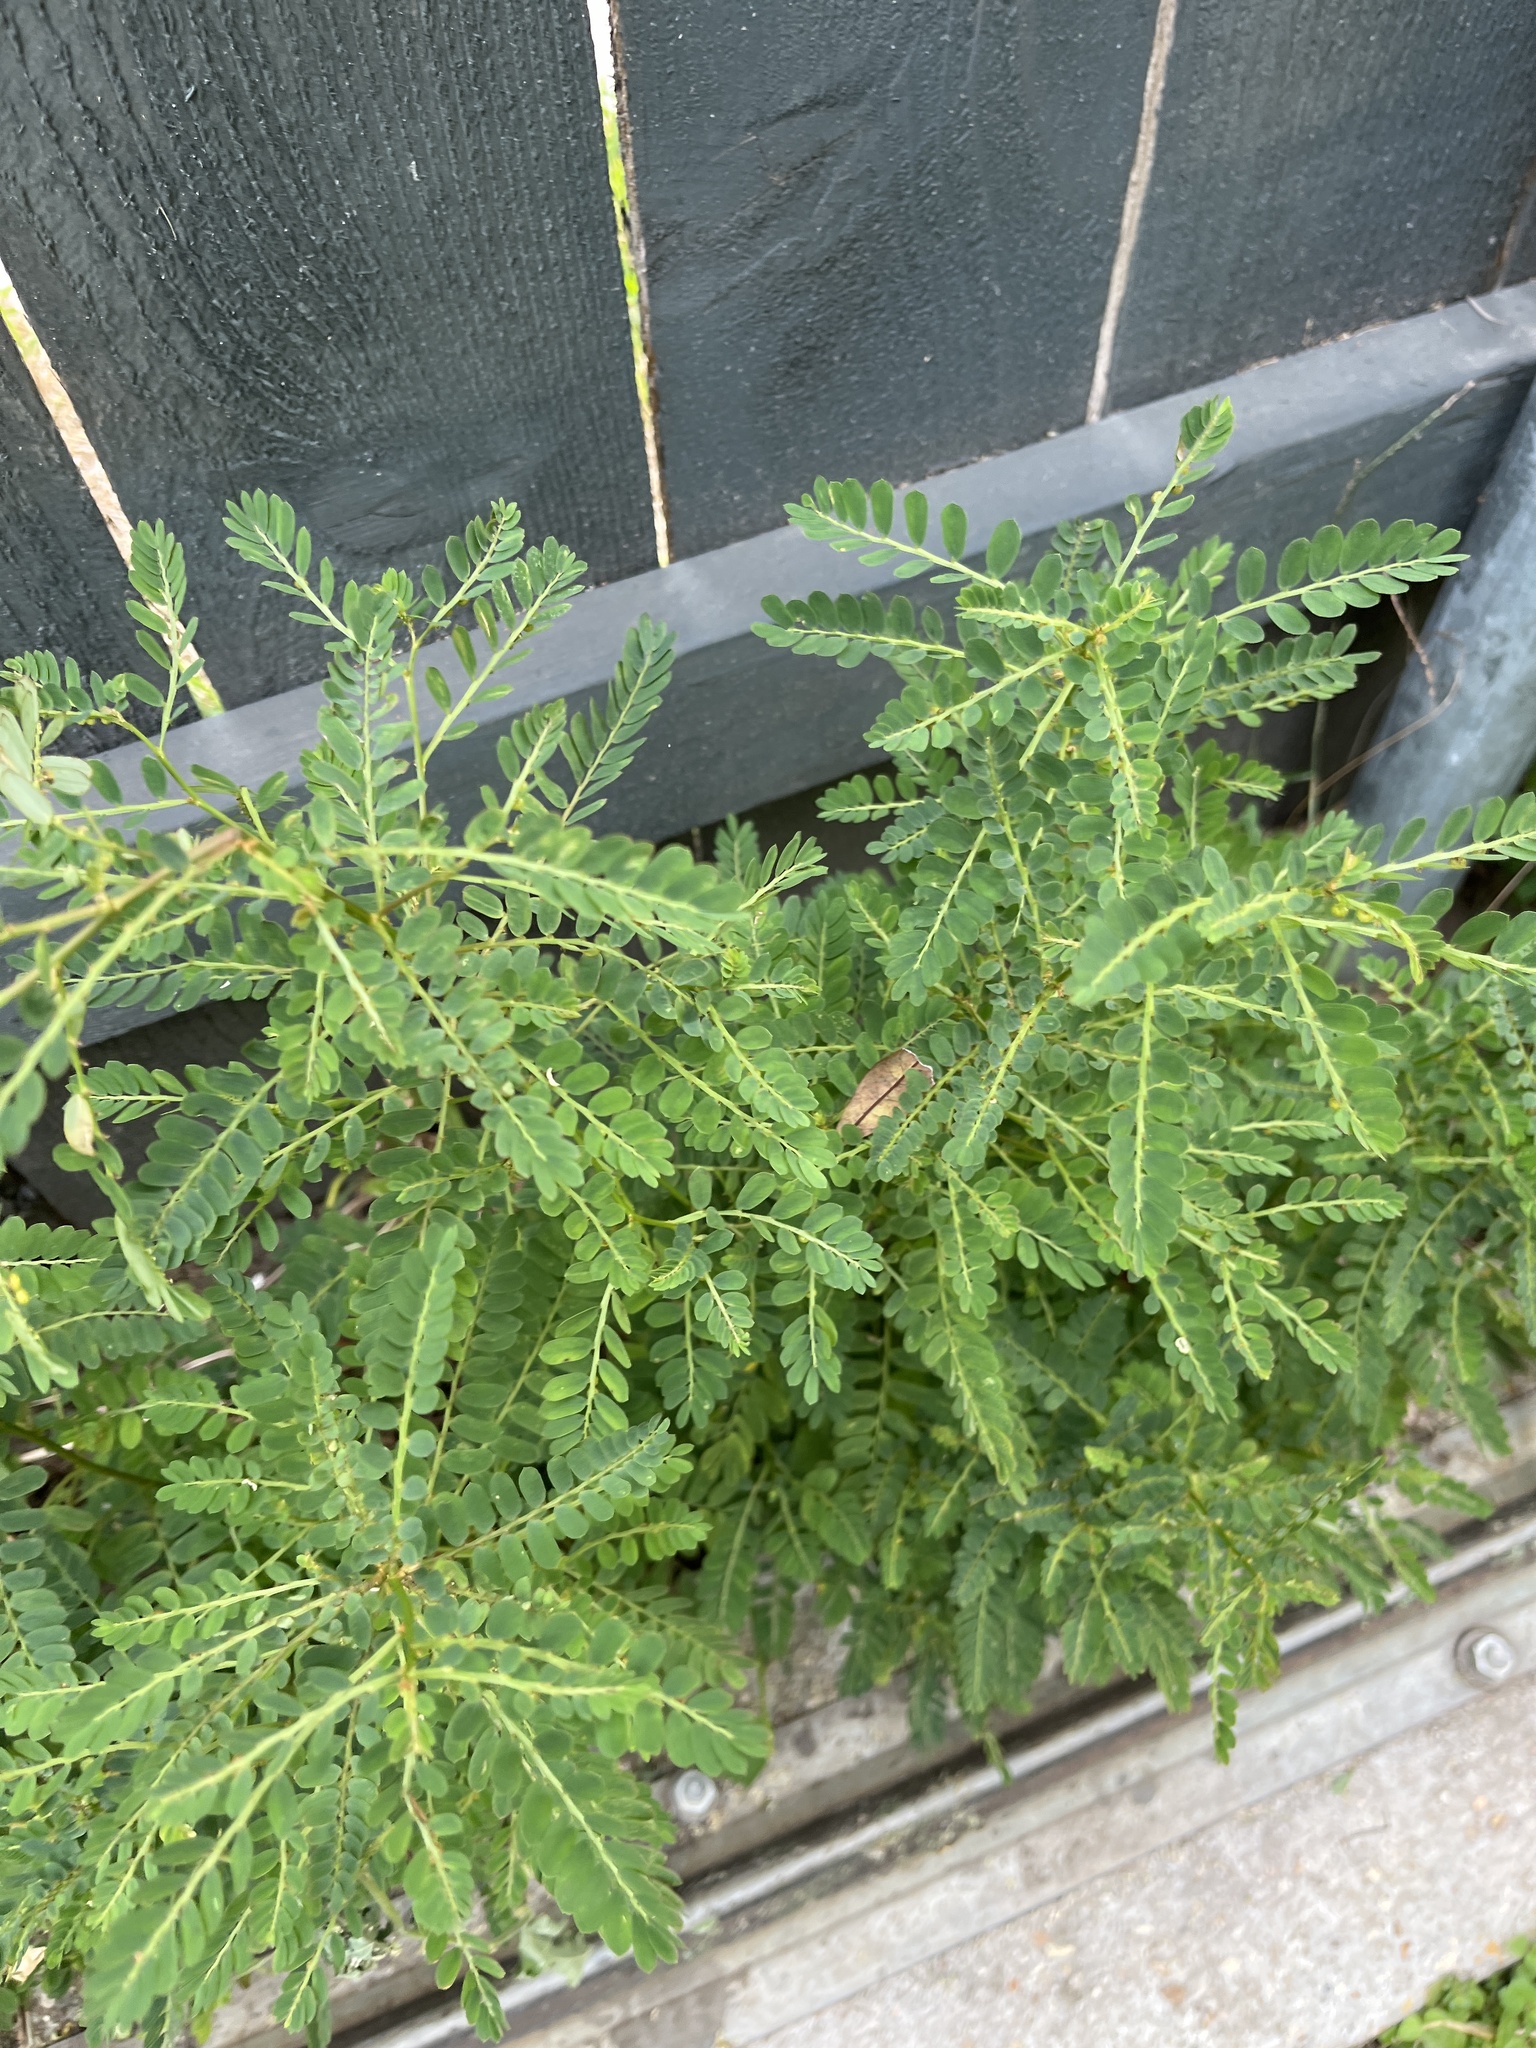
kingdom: Plantae
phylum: Tracheophyta
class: Magnoliopsida
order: Malpighiales
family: Phyllanthaceae
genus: Phyllanthus
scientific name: Phyllanthus urinaria
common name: Chamber bitter
